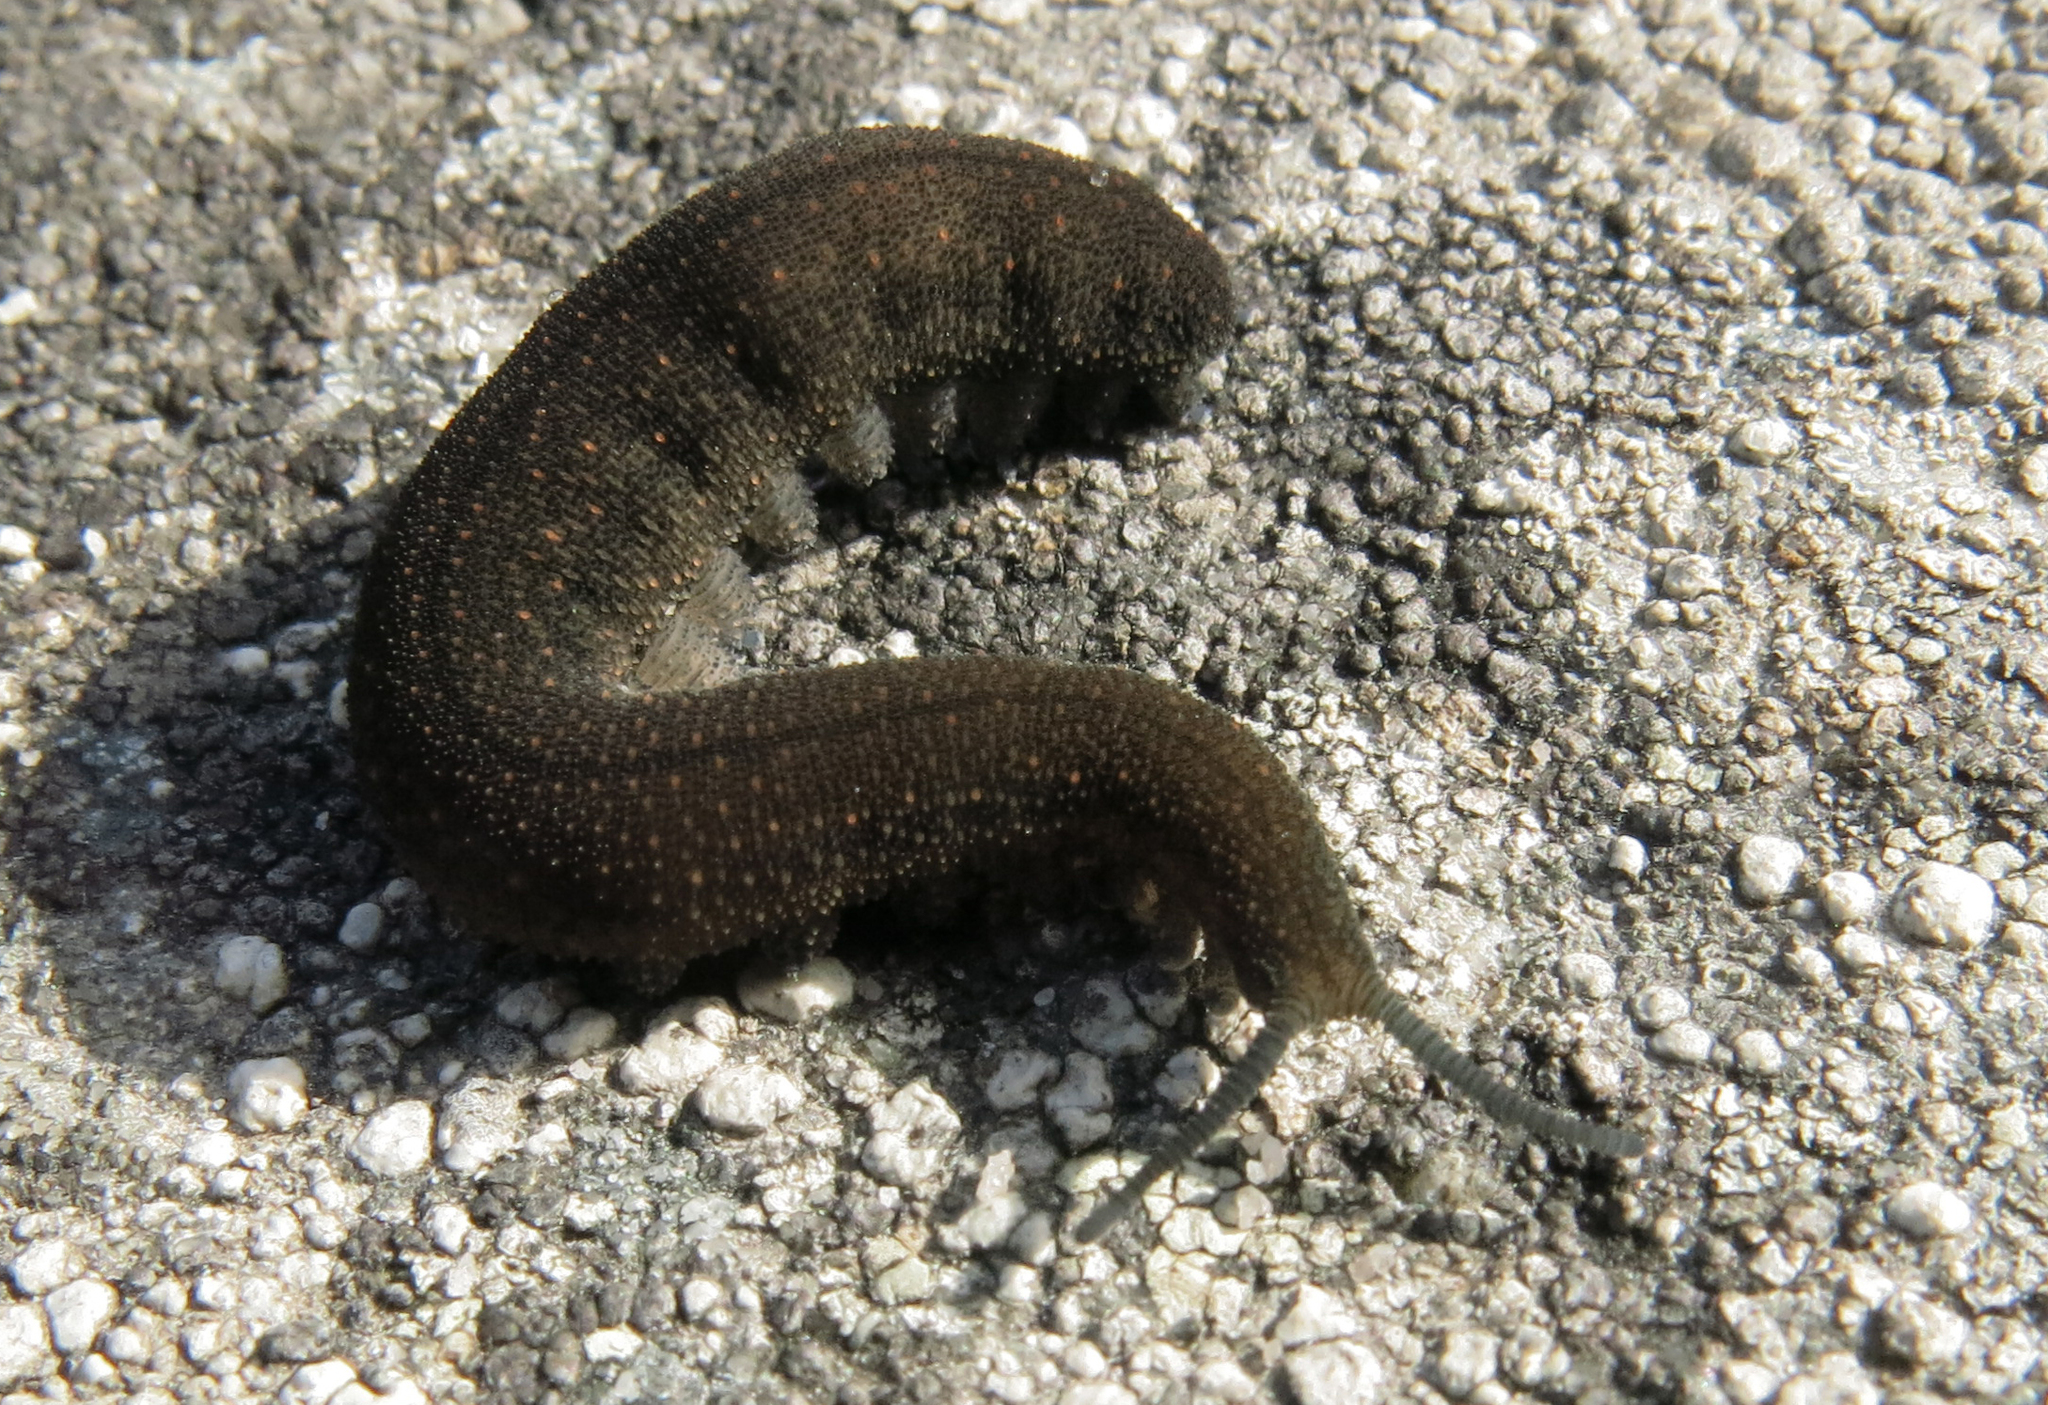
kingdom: Animalia
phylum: Onychophora
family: Peripatopsidae
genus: Peripatopsis
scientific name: Peripatopsis lawrencei
